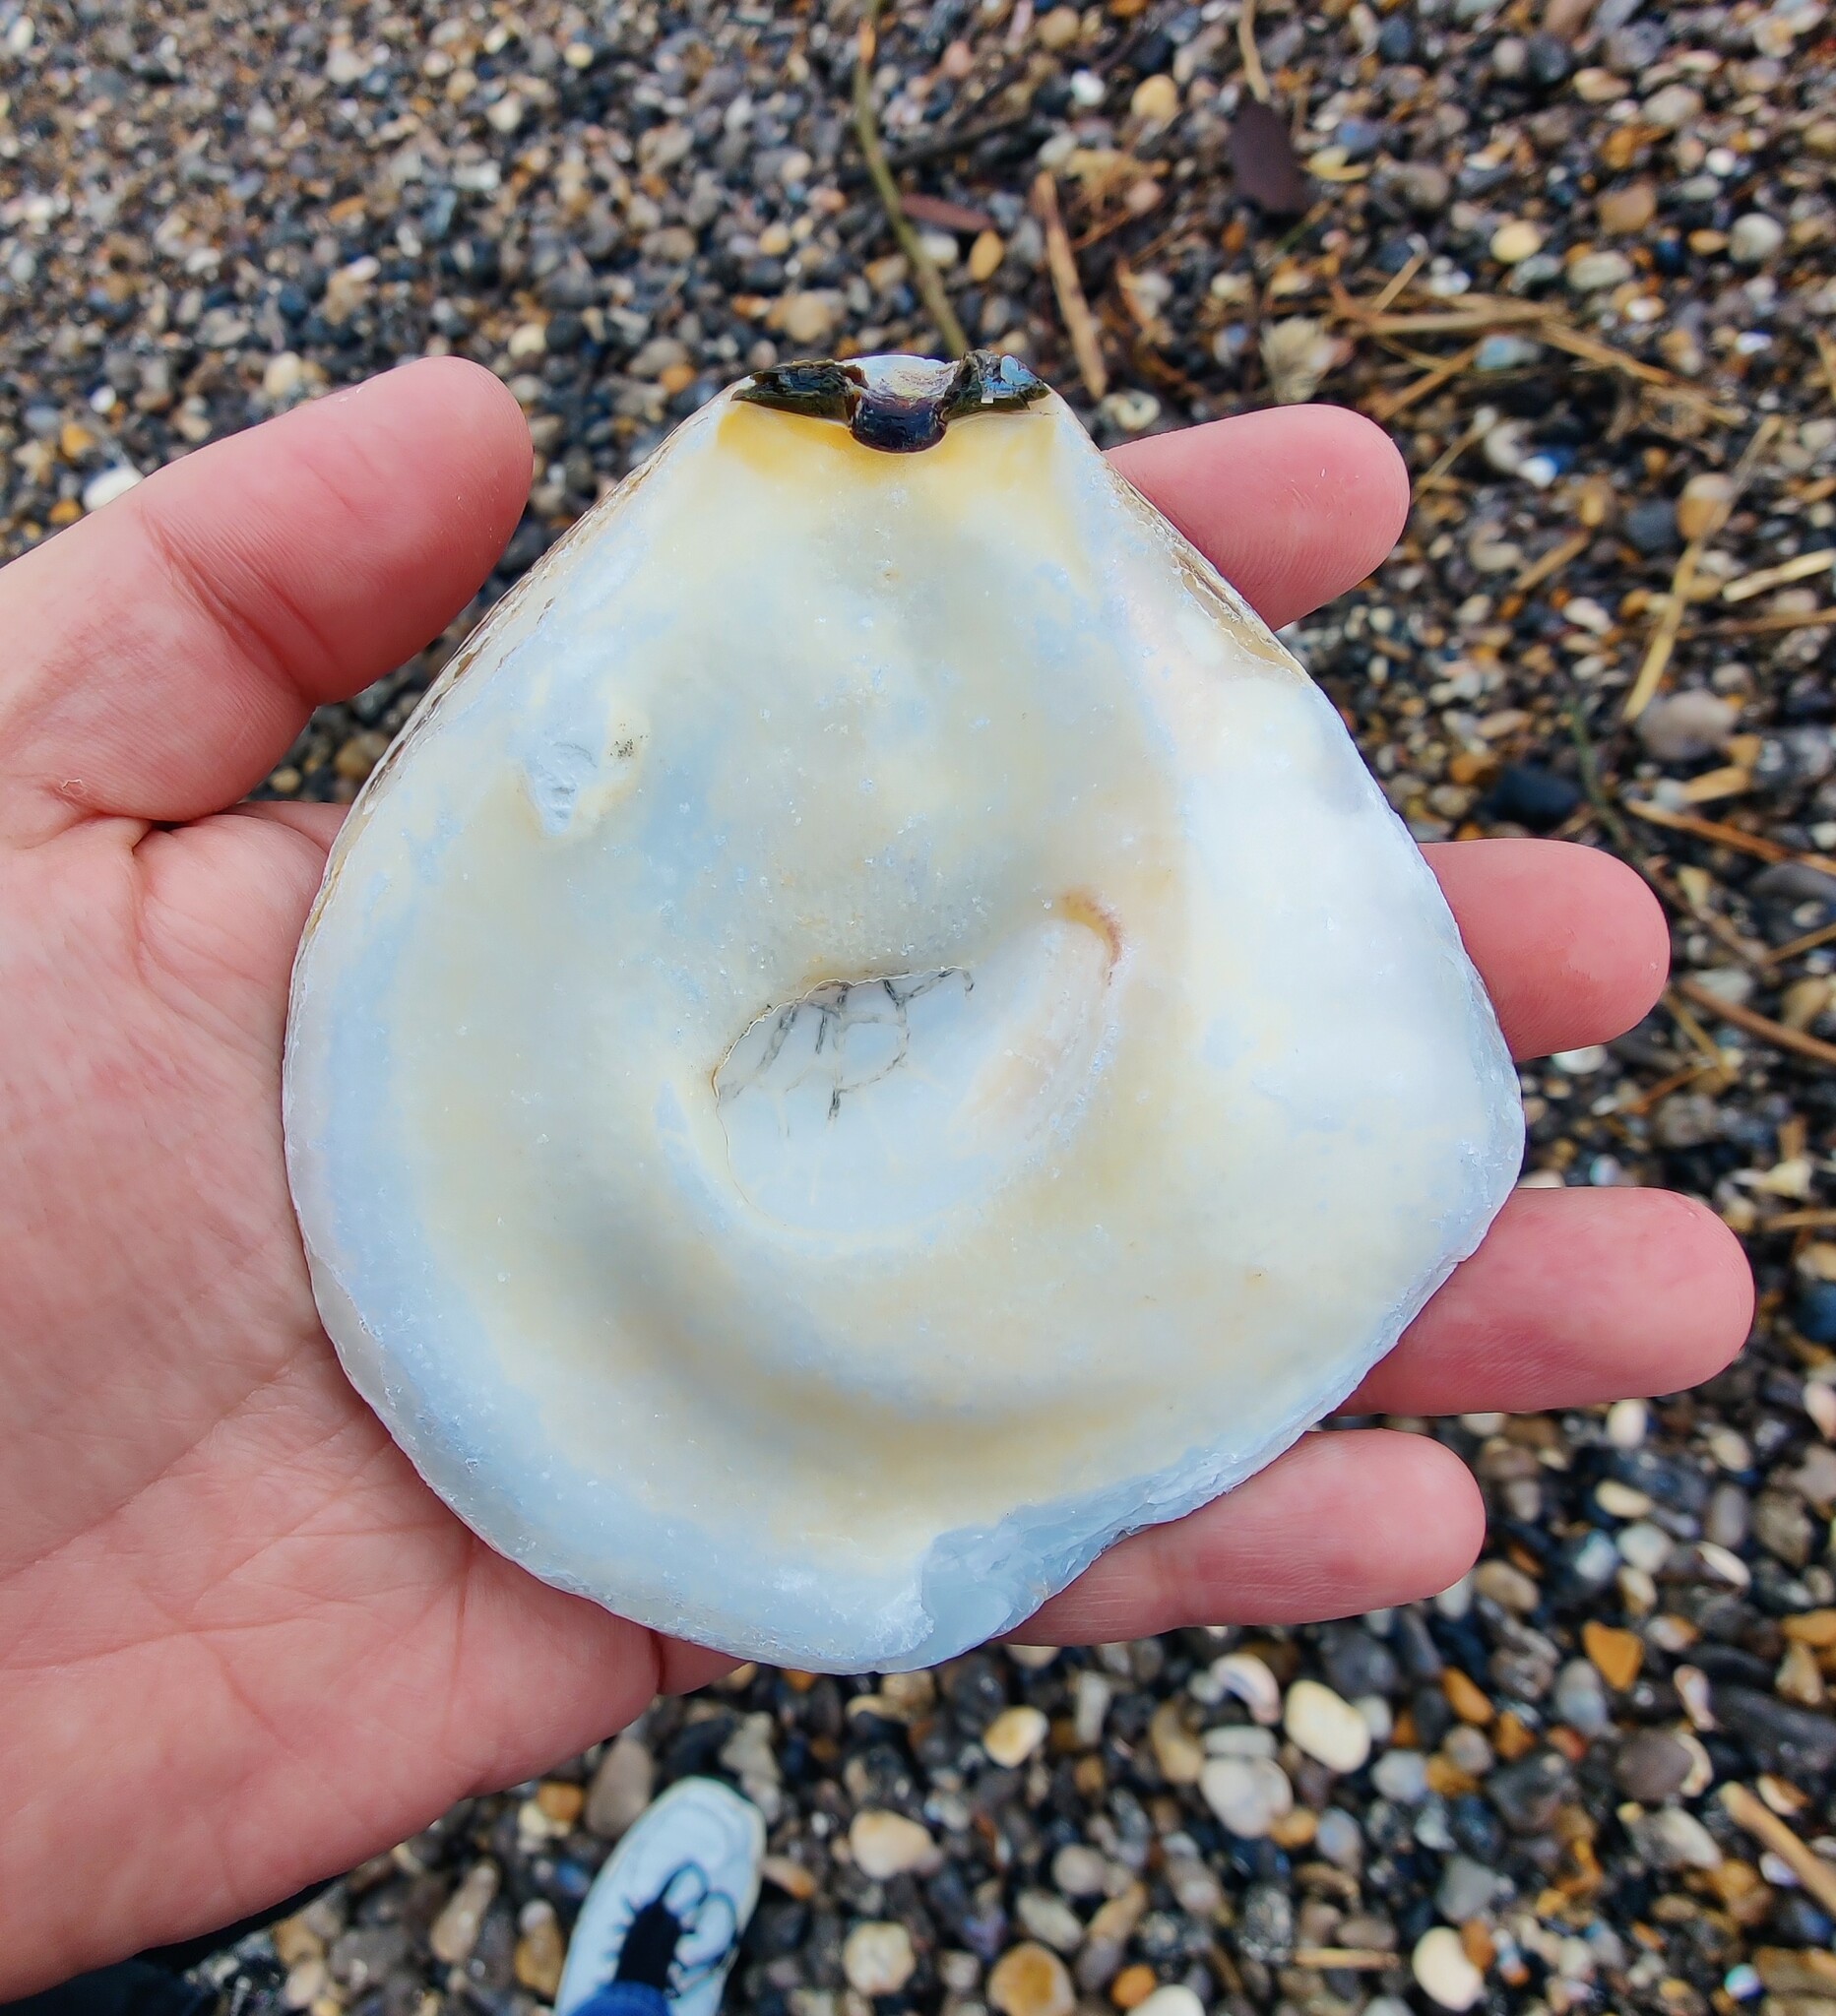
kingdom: Animalia
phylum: Mollusca
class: Bivalvia
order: Ostreida
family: Ostreidae
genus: Ostrea
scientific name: Ostrea edulis
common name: Flat oyster
